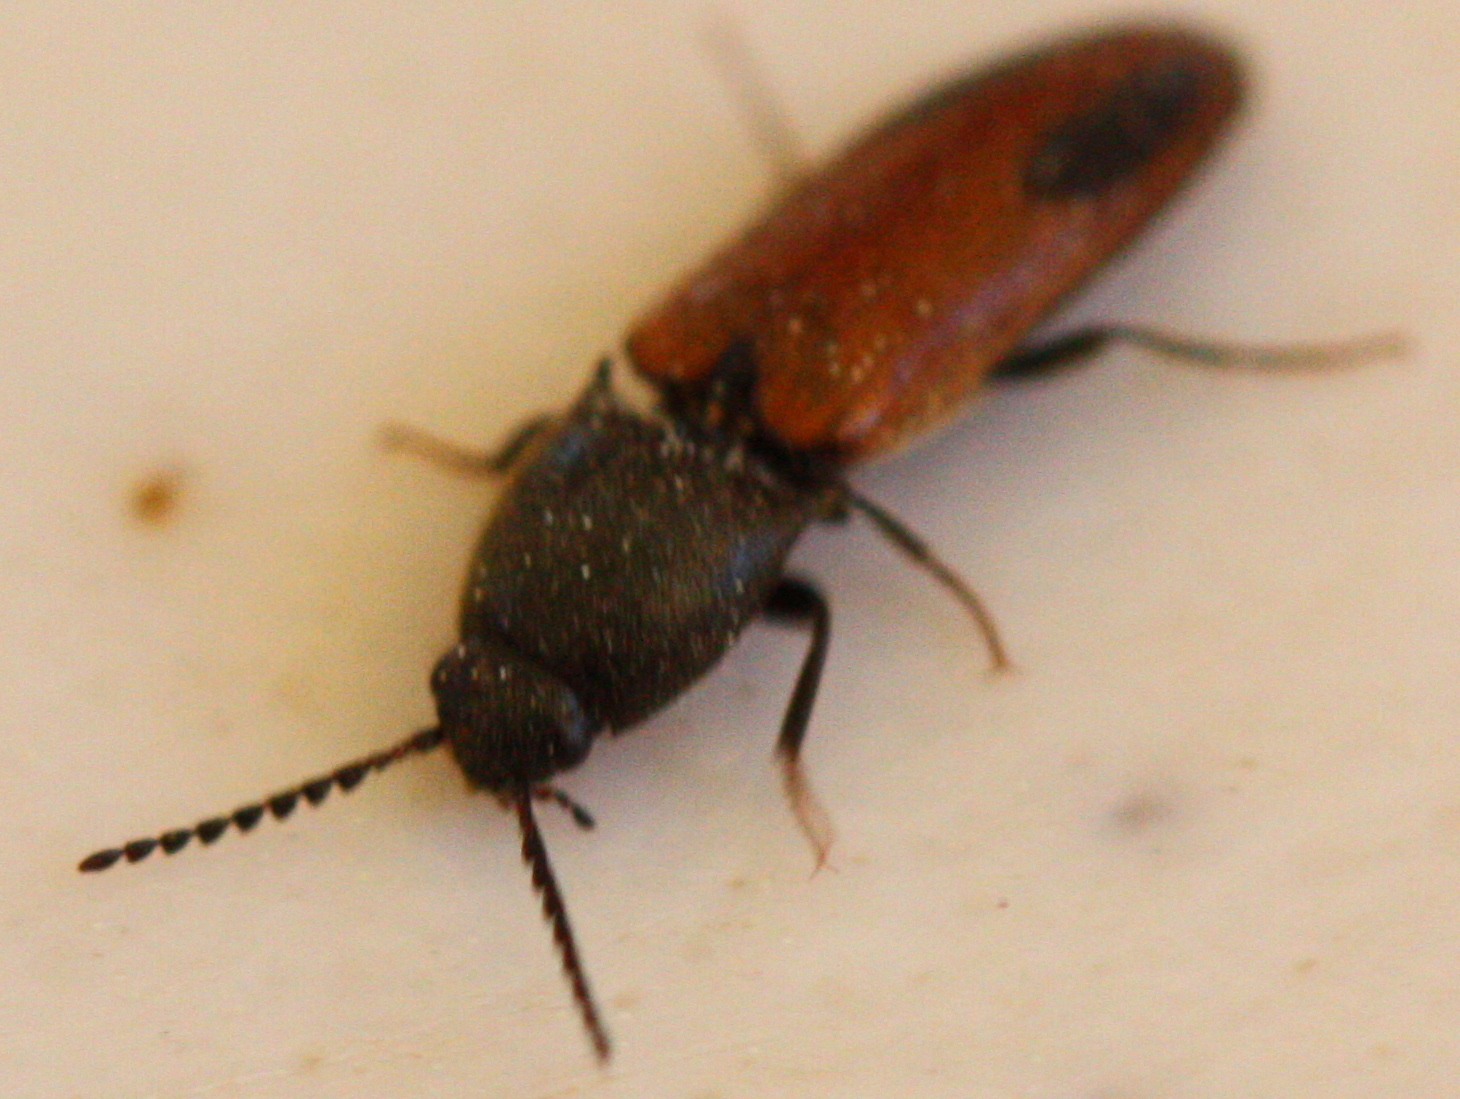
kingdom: Animalia
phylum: Arthropoda
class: Insecta
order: Coleoptera
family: Elateridae
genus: Ampedus
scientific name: Ampedus occidentalis
